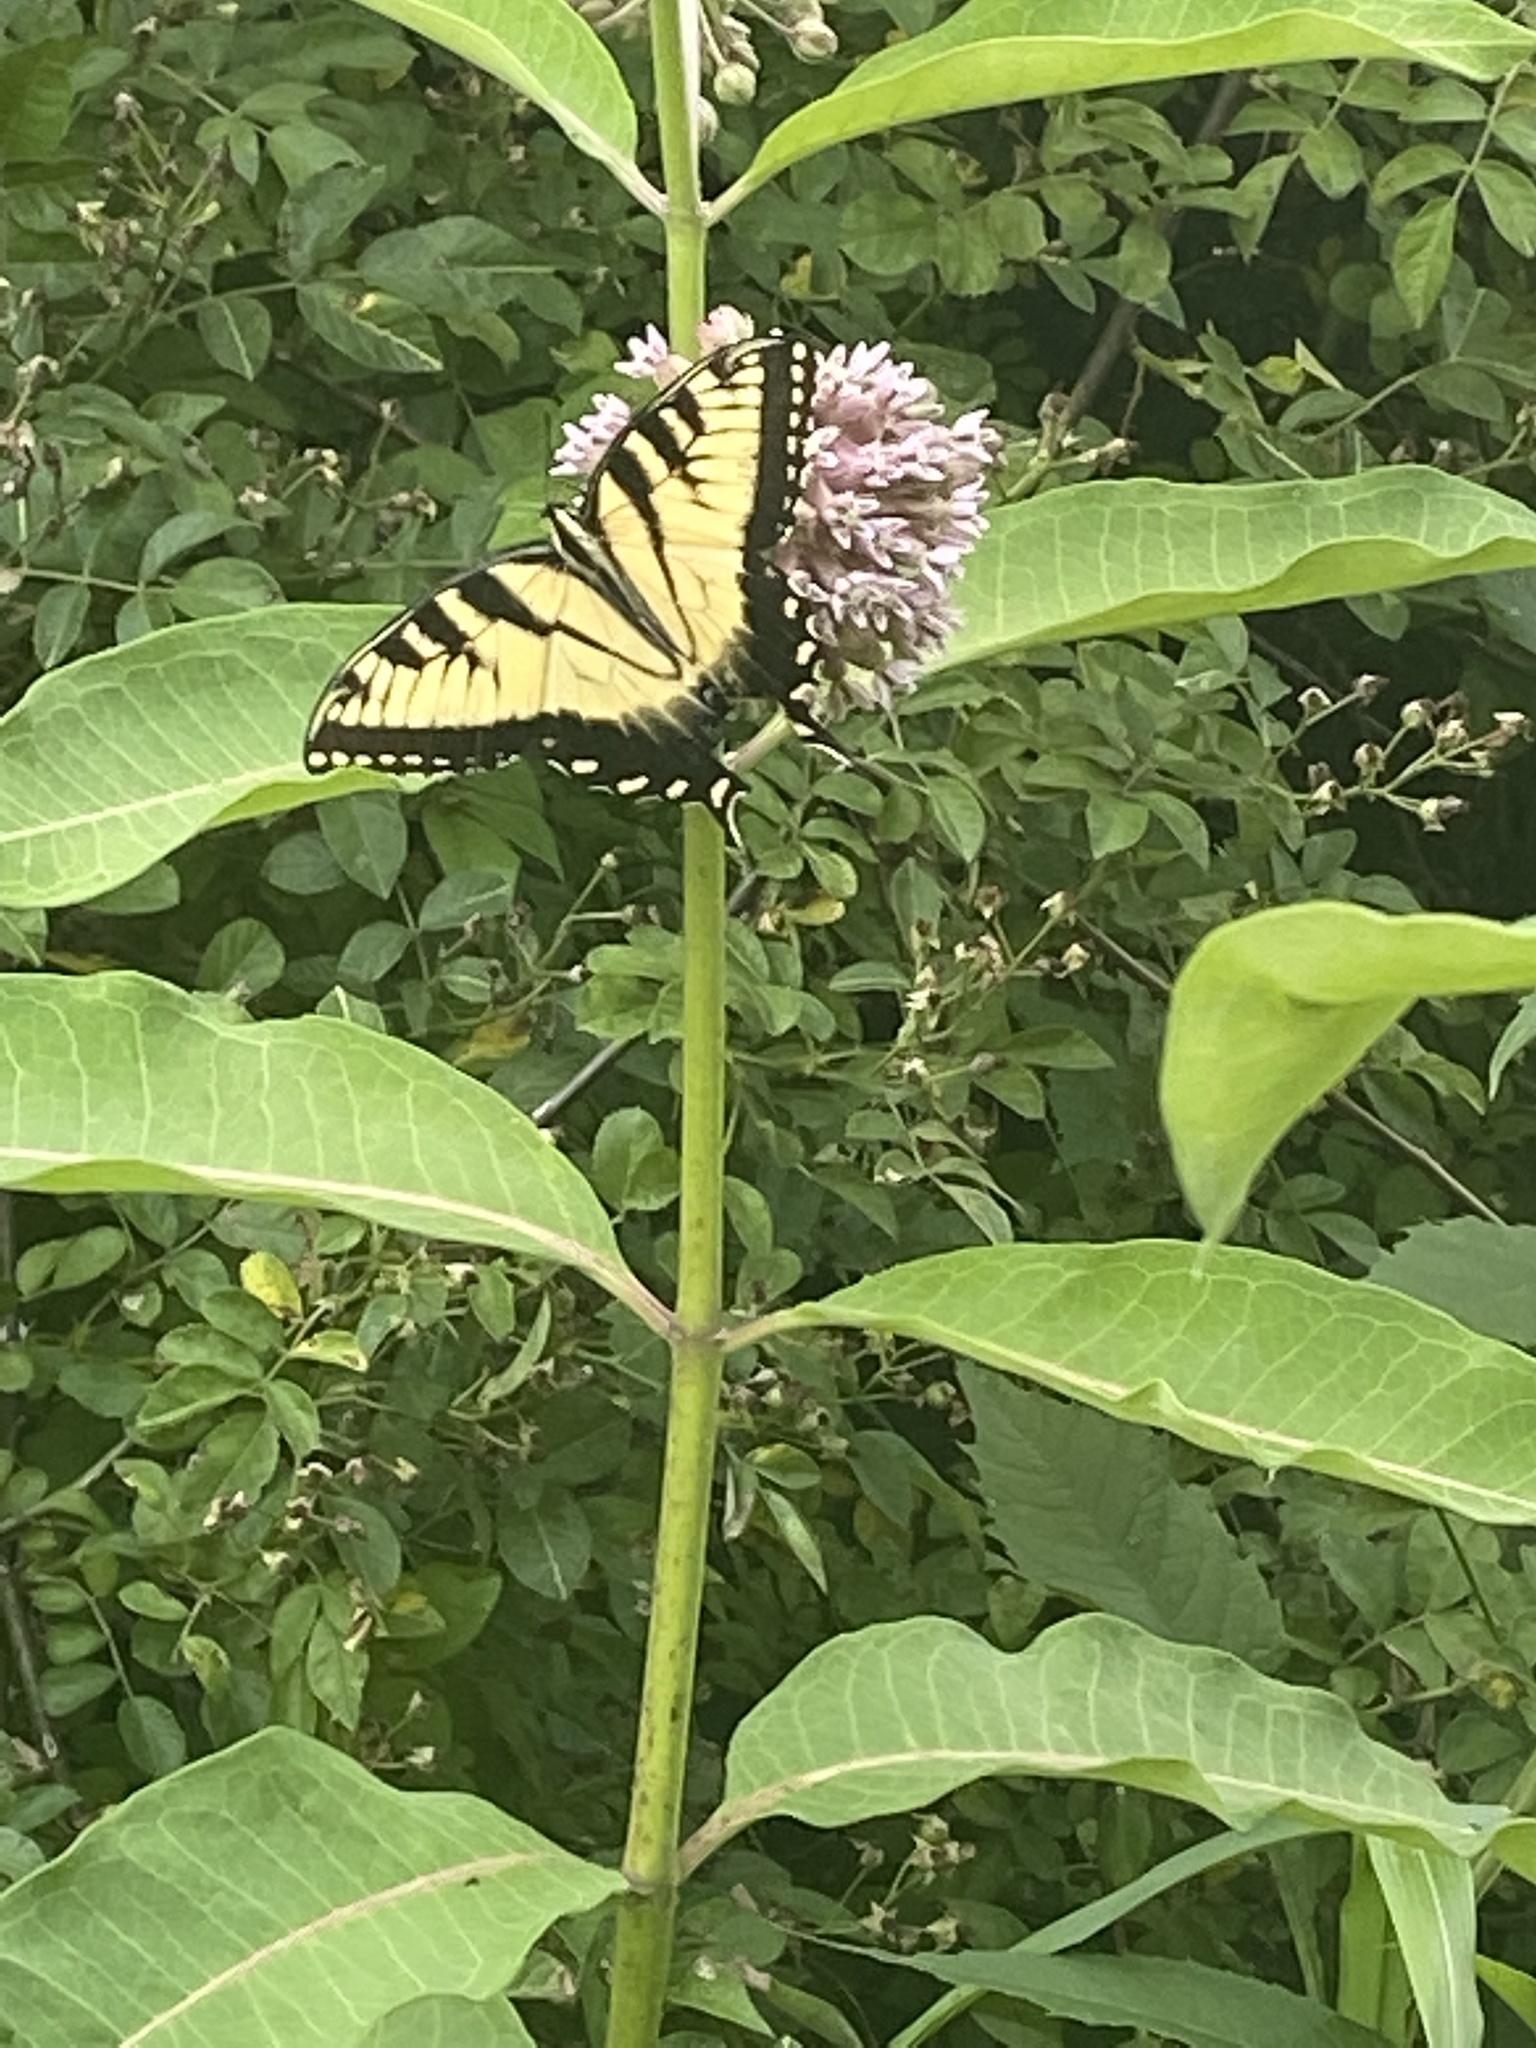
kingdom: Animalia
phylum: Arthropoda
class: Insecta
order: Lepidoptera
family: Papilionidae
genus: Papilio
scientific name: Papilio glaucus
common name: Tiger swallowtail
